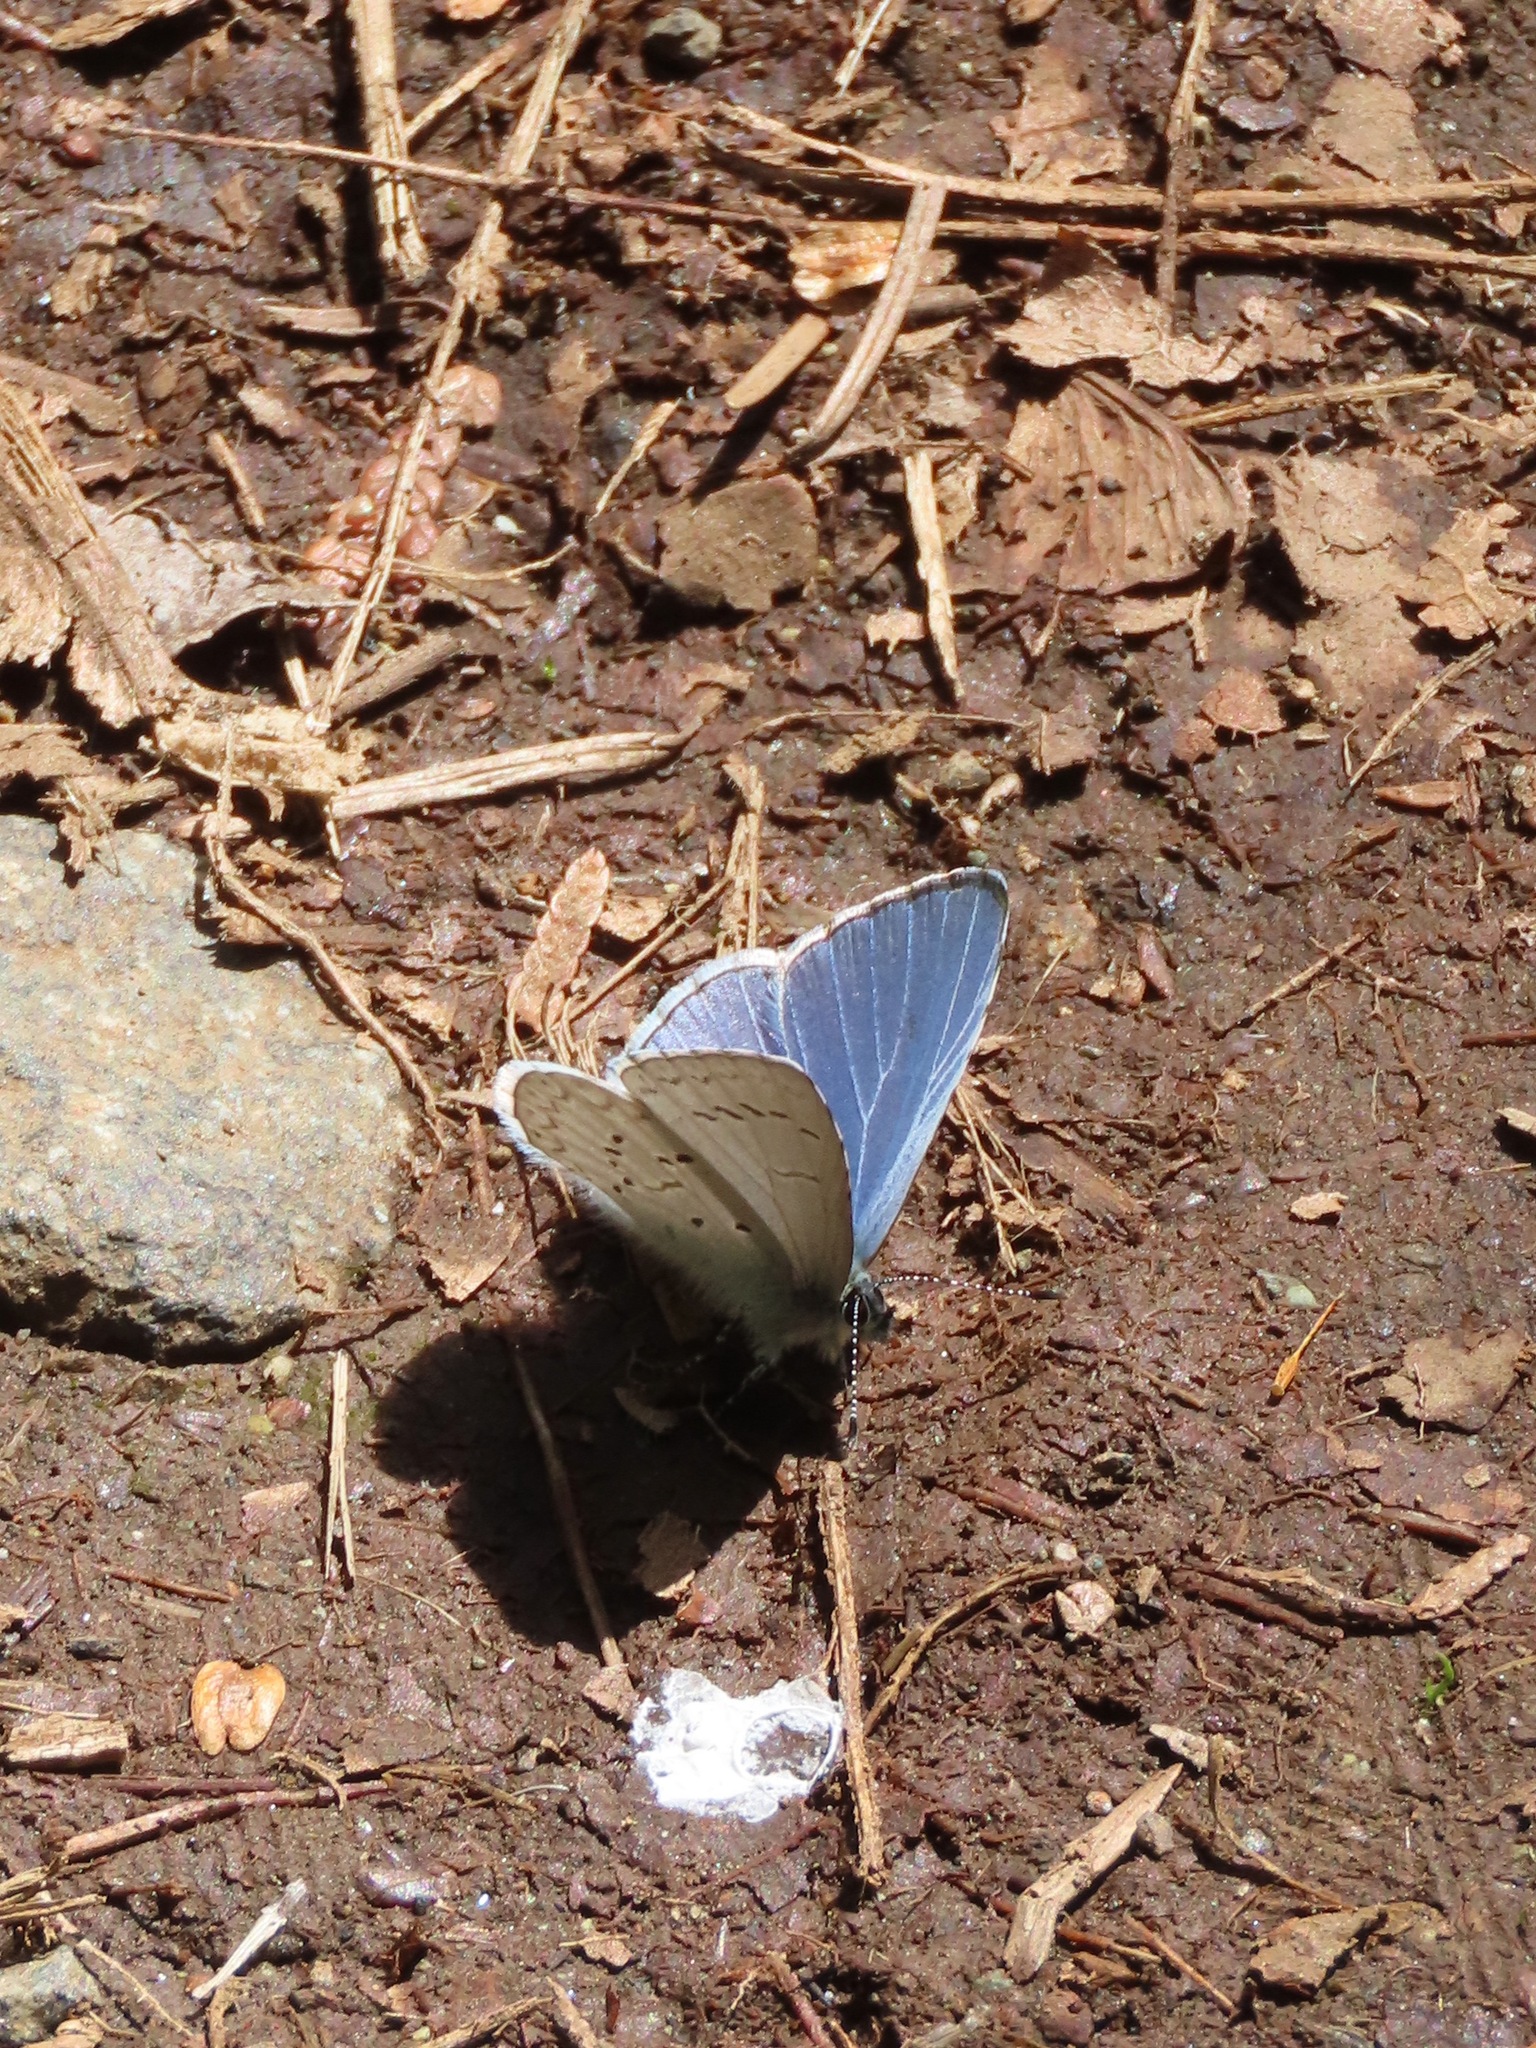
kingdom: Animalia
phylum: Arthropoda
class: Insecta
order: Lepidoptera
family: Lycaenidae
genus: Celastrina
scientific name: Celastrina ladon
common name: Spring azure
